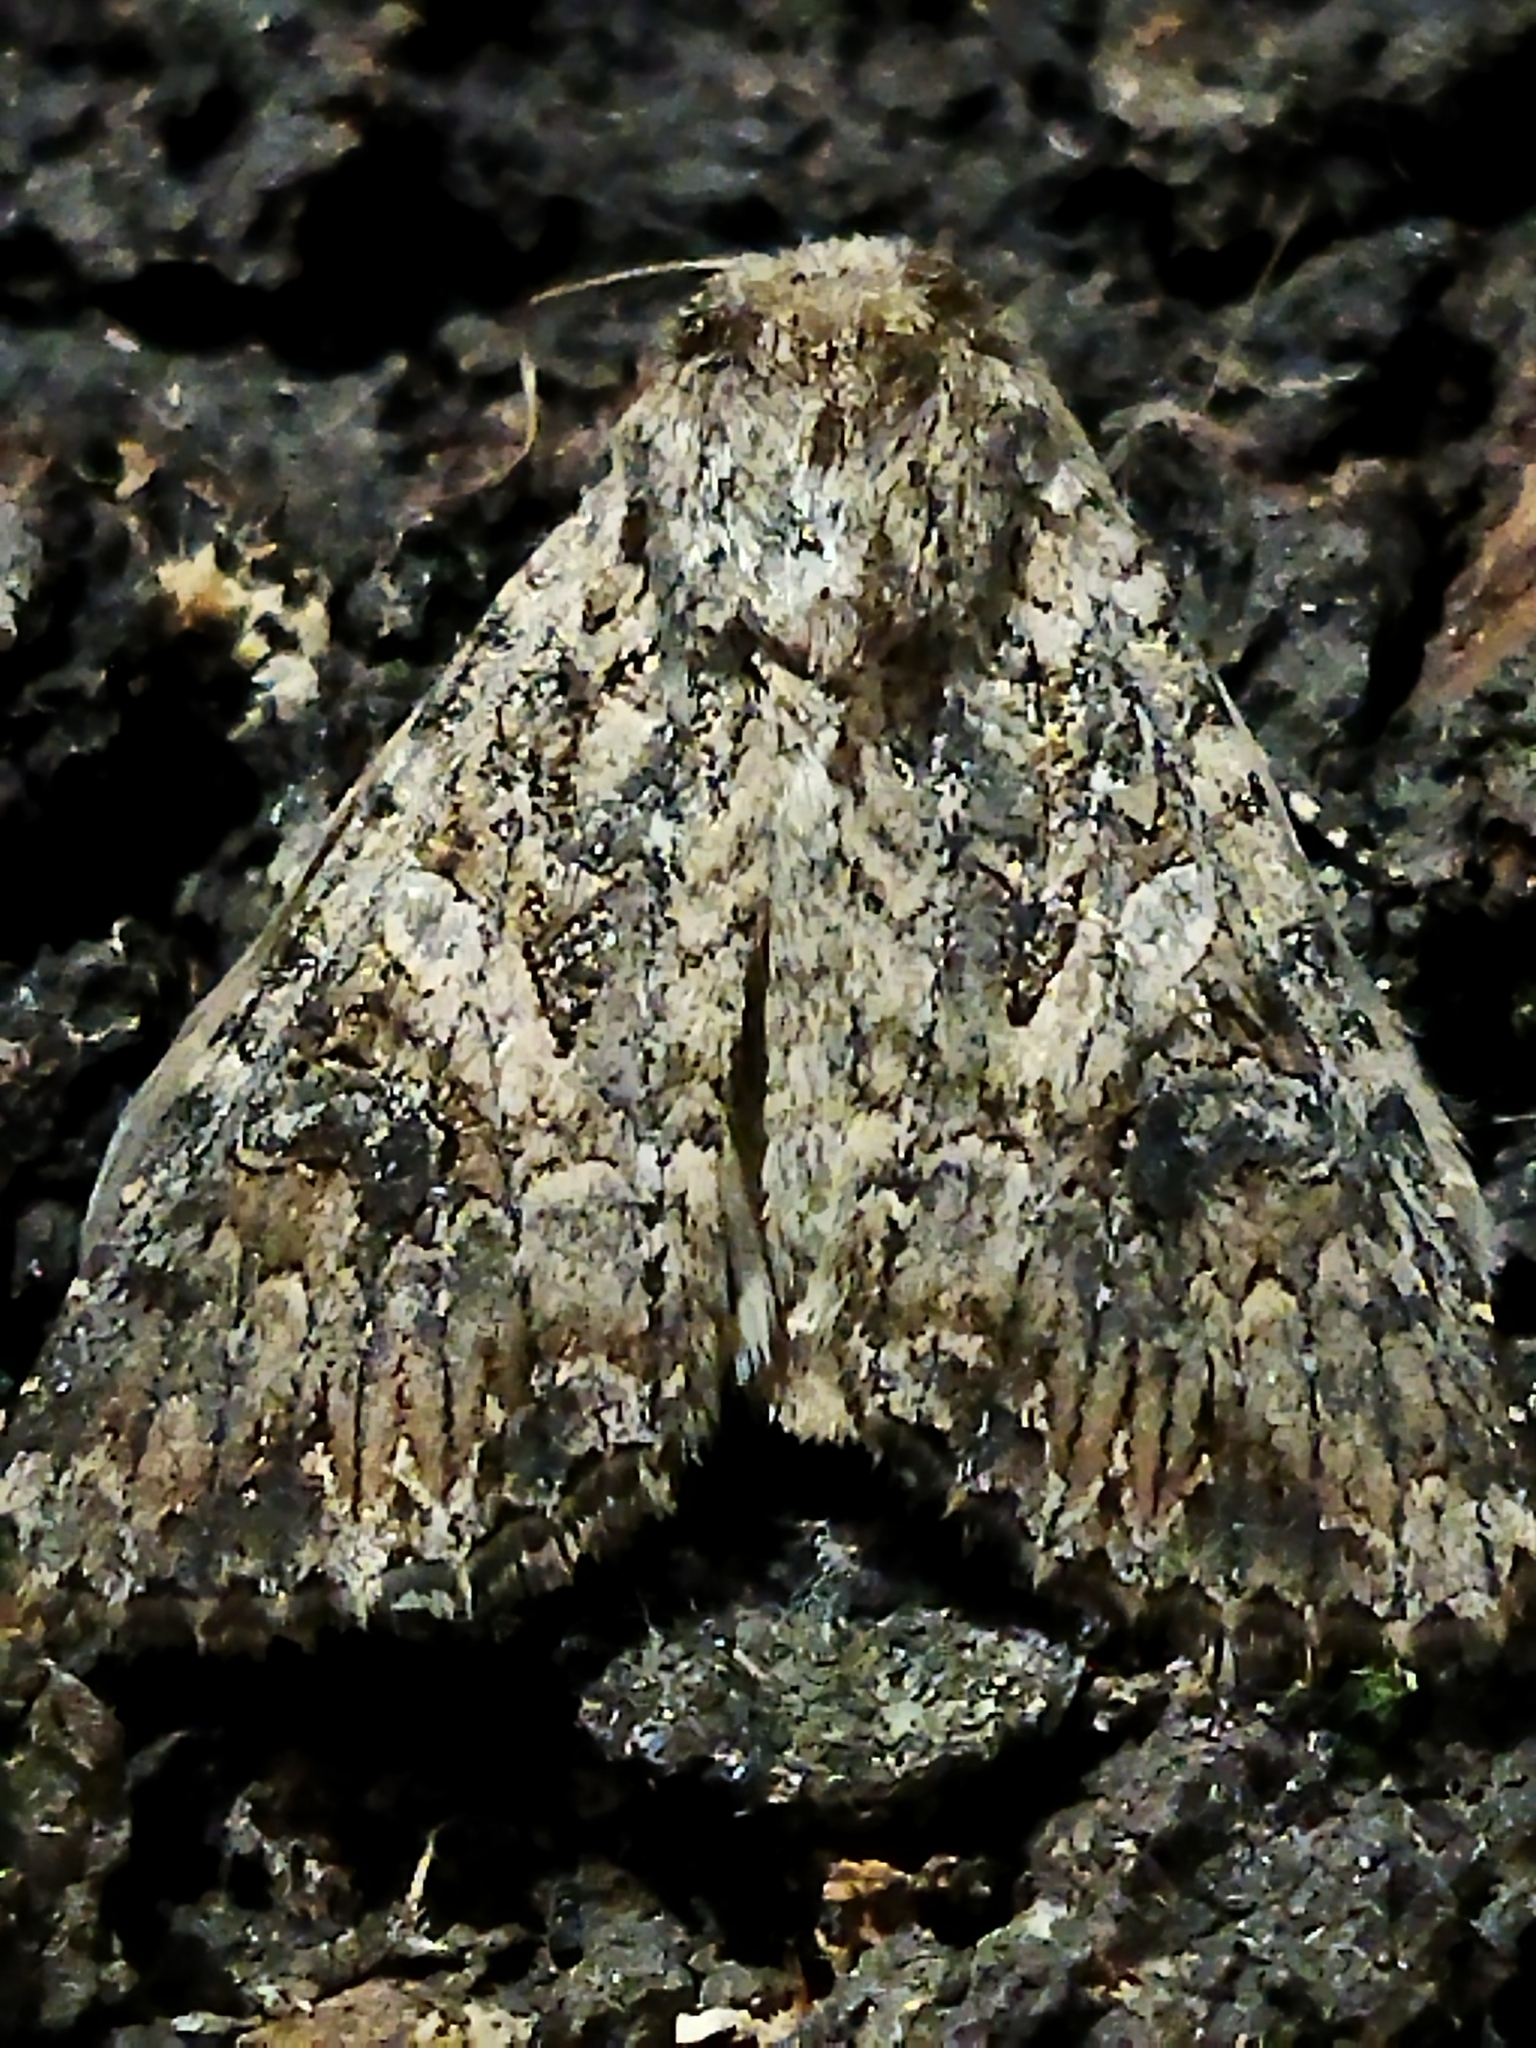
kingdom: Animalia
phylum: Arthropoda
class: Insecta
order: Lepidoptera
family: Noctuidae
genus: Anarta
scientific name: Anarta trifolii
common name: Clover cutworm moth
